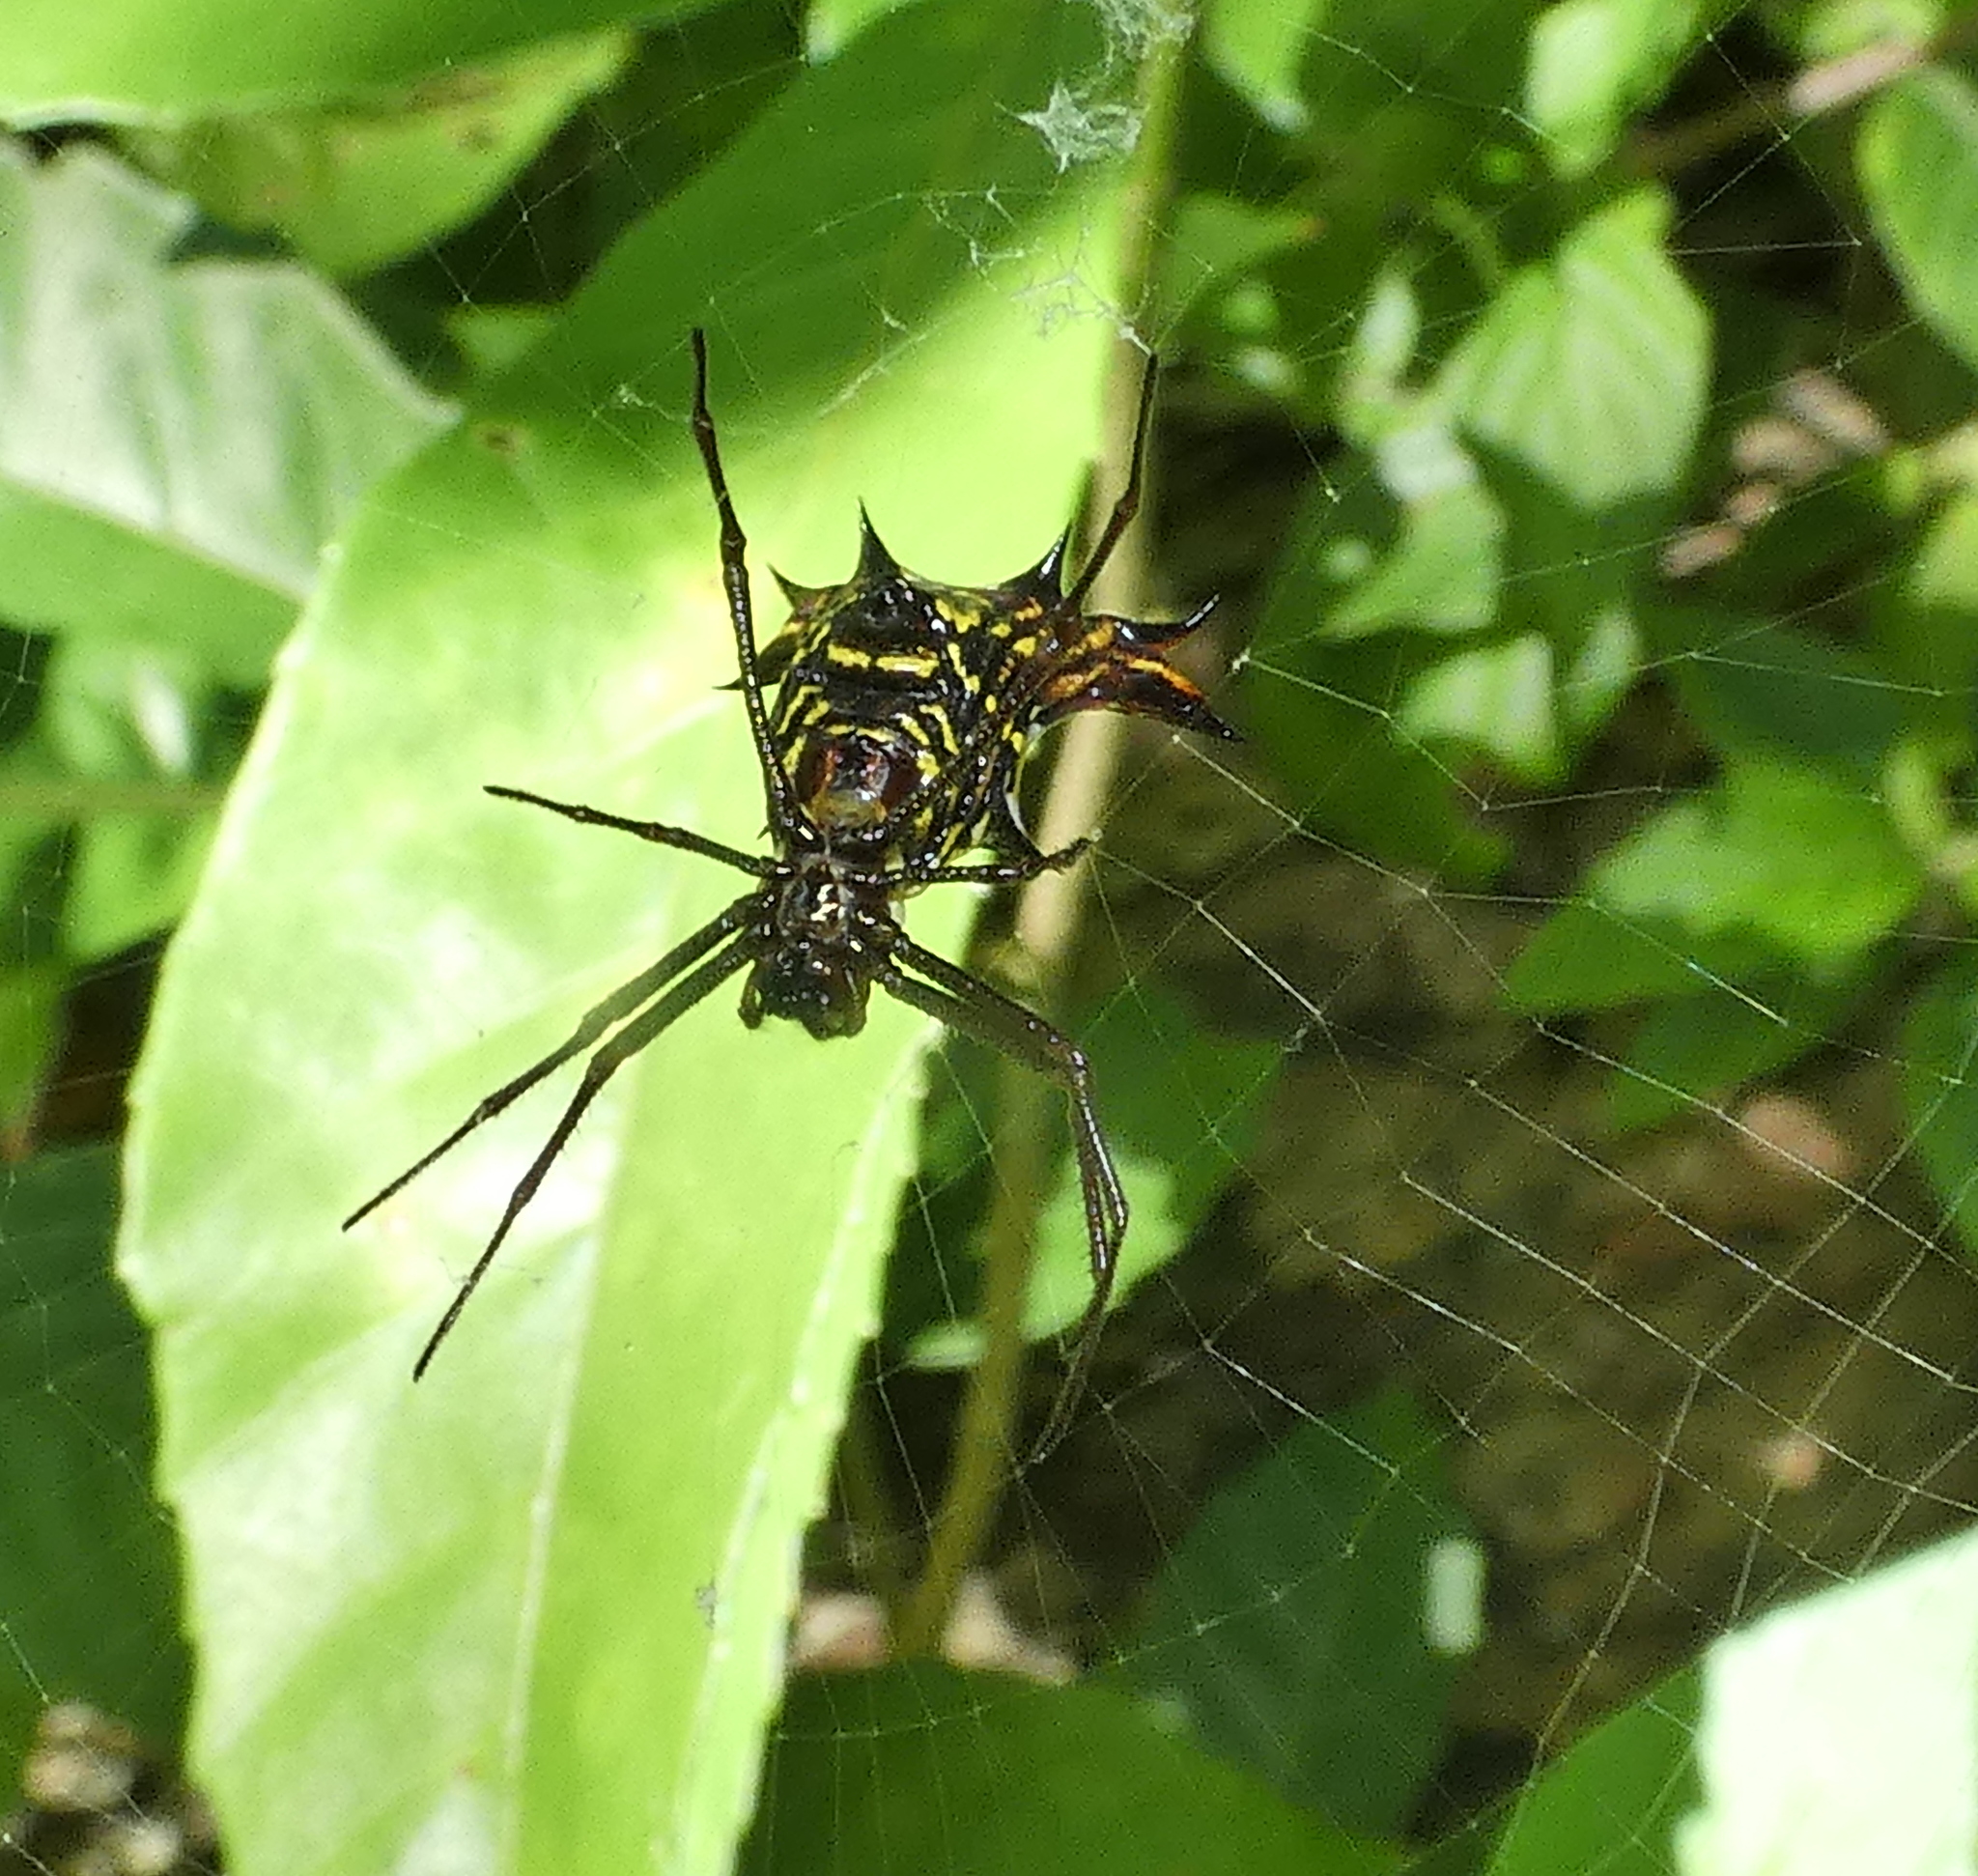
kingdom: Animalia
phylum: Arthropoda
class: Arachnida
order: Araneae
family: Araneidae
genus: Micrathena
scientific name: Micrathena fissispina
